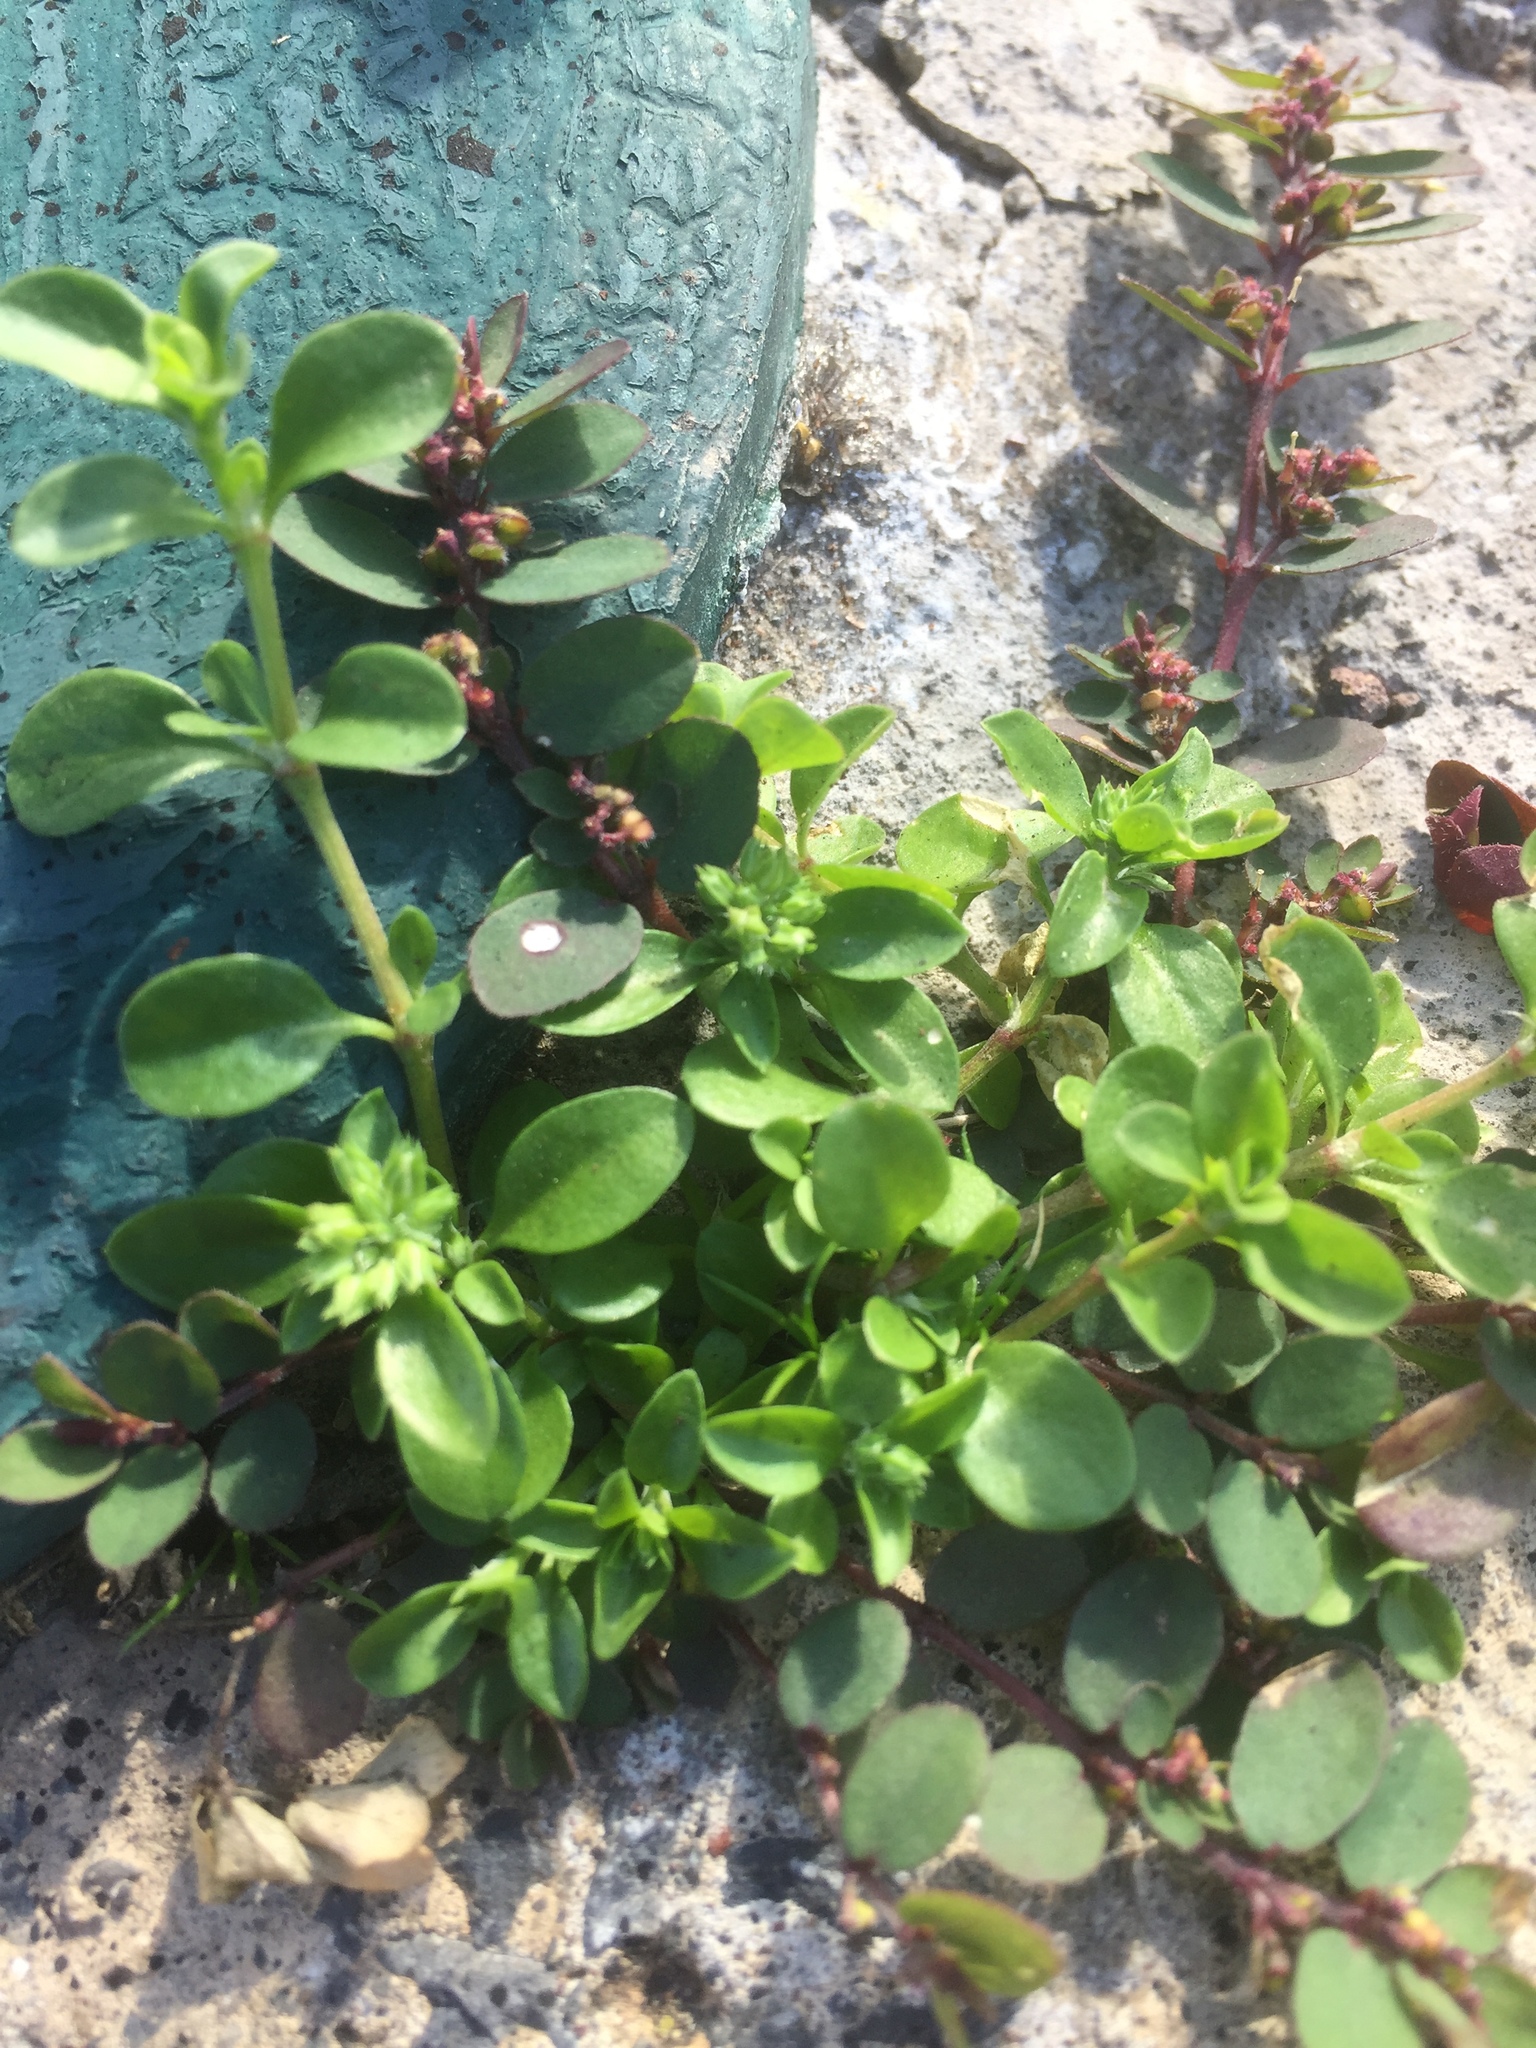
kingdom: Plantae
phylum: Tracheophyta
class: Magnoliopsida
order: Caryophyllales
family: Caryophyllaceae
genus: Polycarpon
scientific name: Polycarpon tetraphyllum
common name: Four-leaved all-seed
